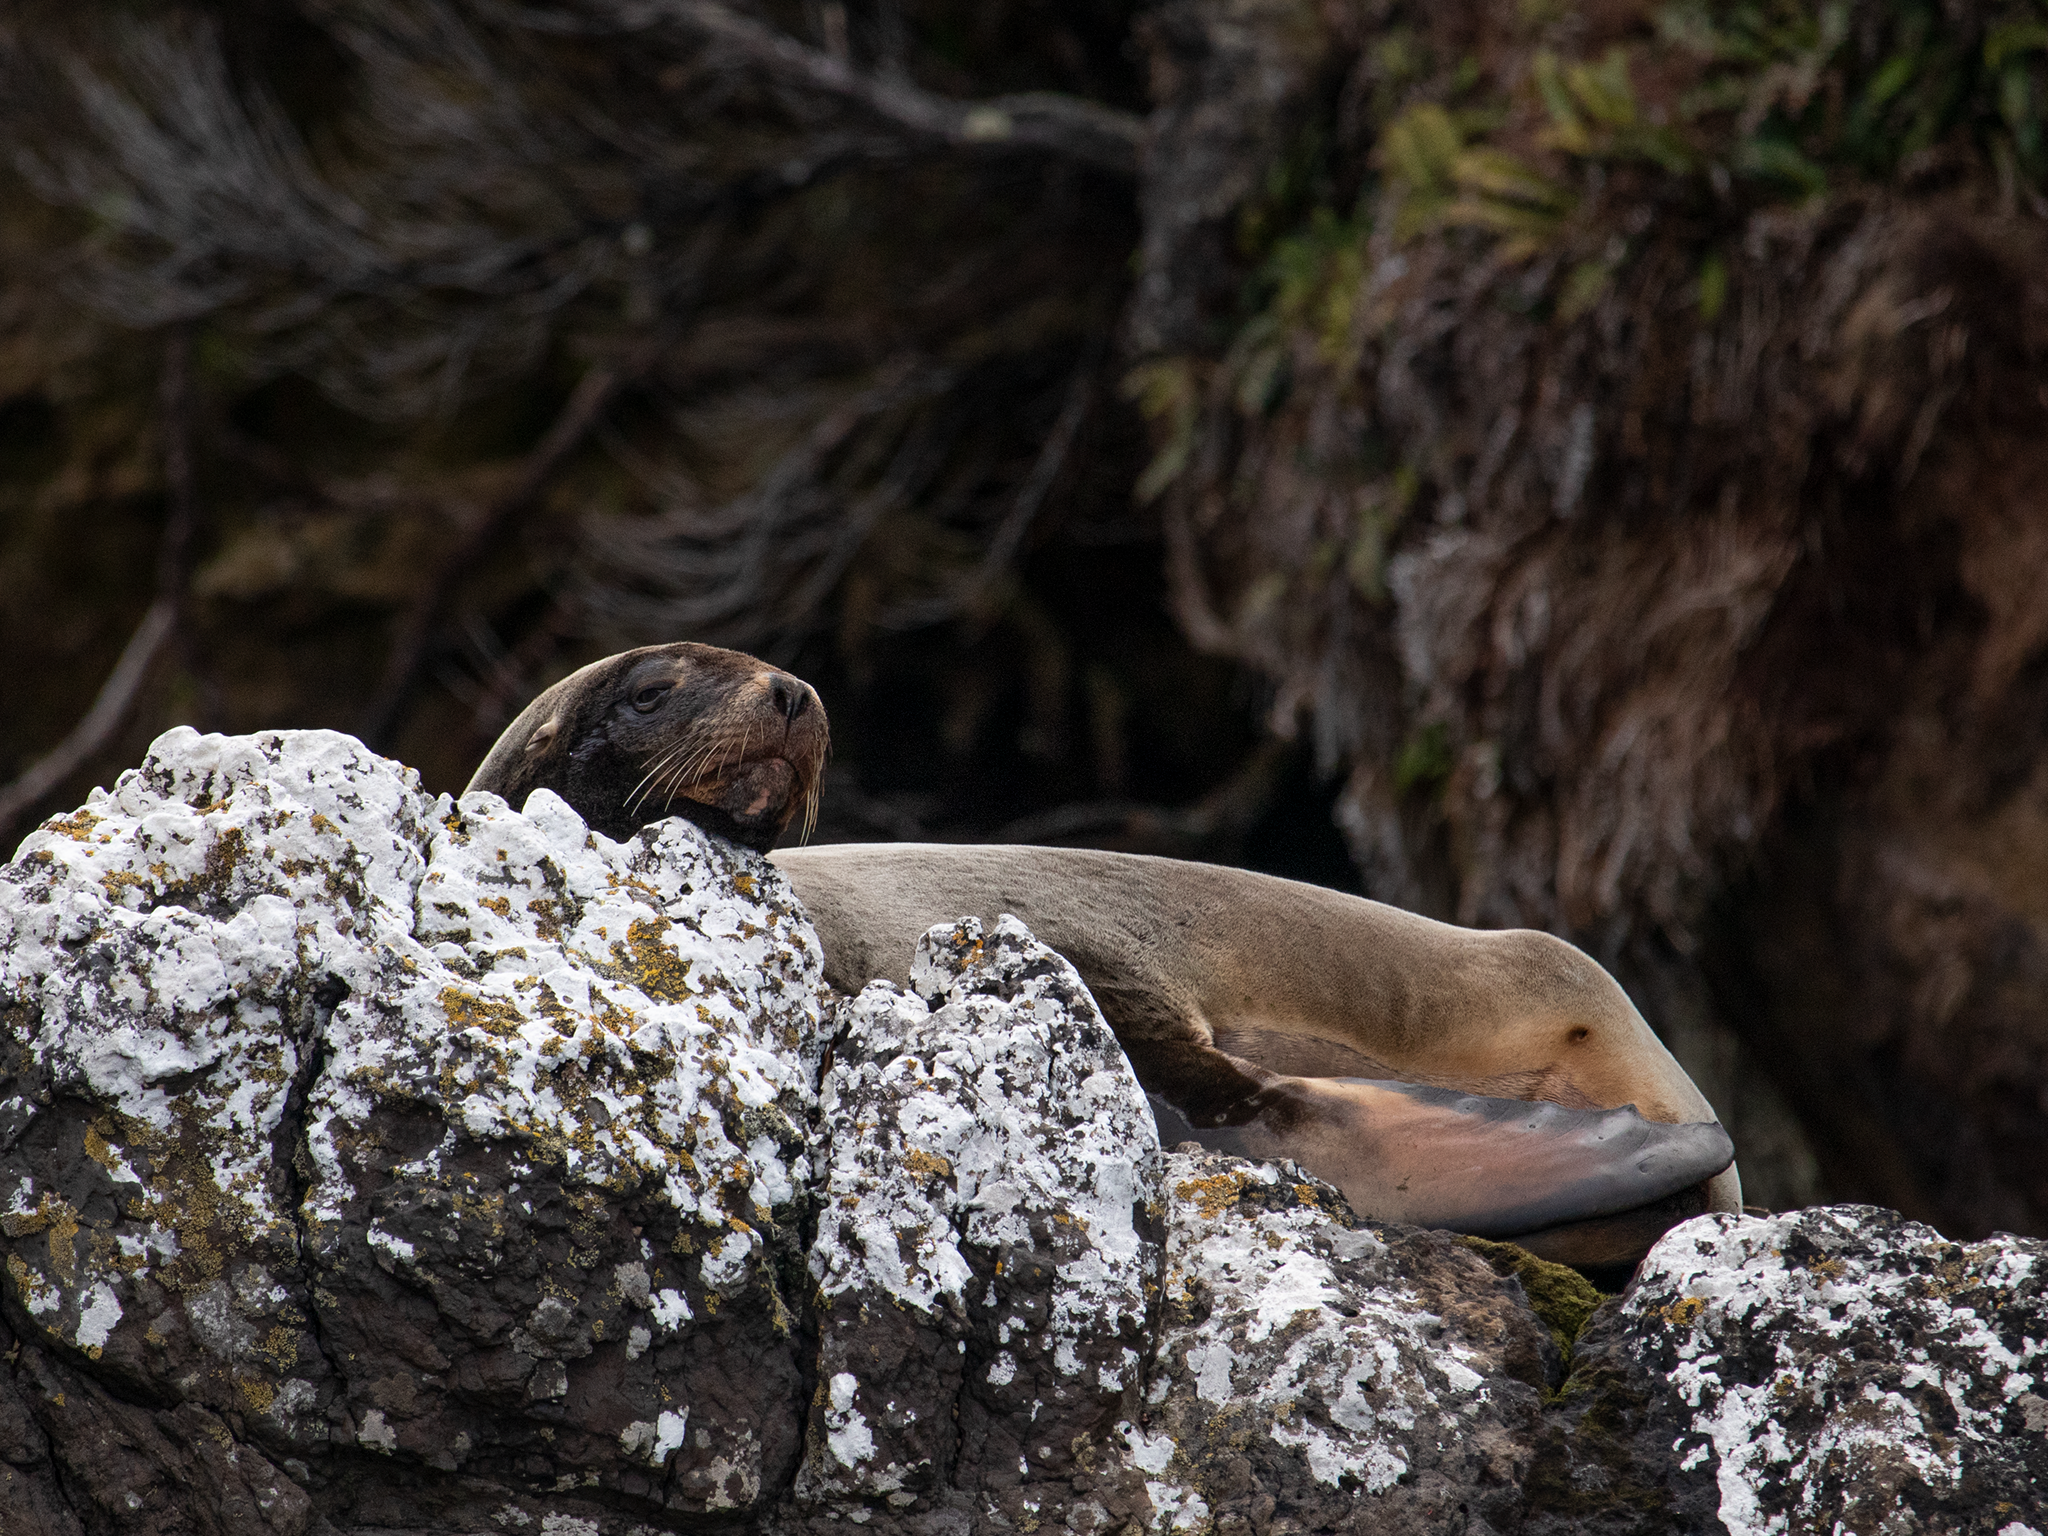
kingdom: Animalia
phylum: Chordata
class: Mammalia
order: Carnivora
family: Otariidae
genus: Phocarctos
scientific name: Phocarctos hookeri
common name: New zealand sea lion
